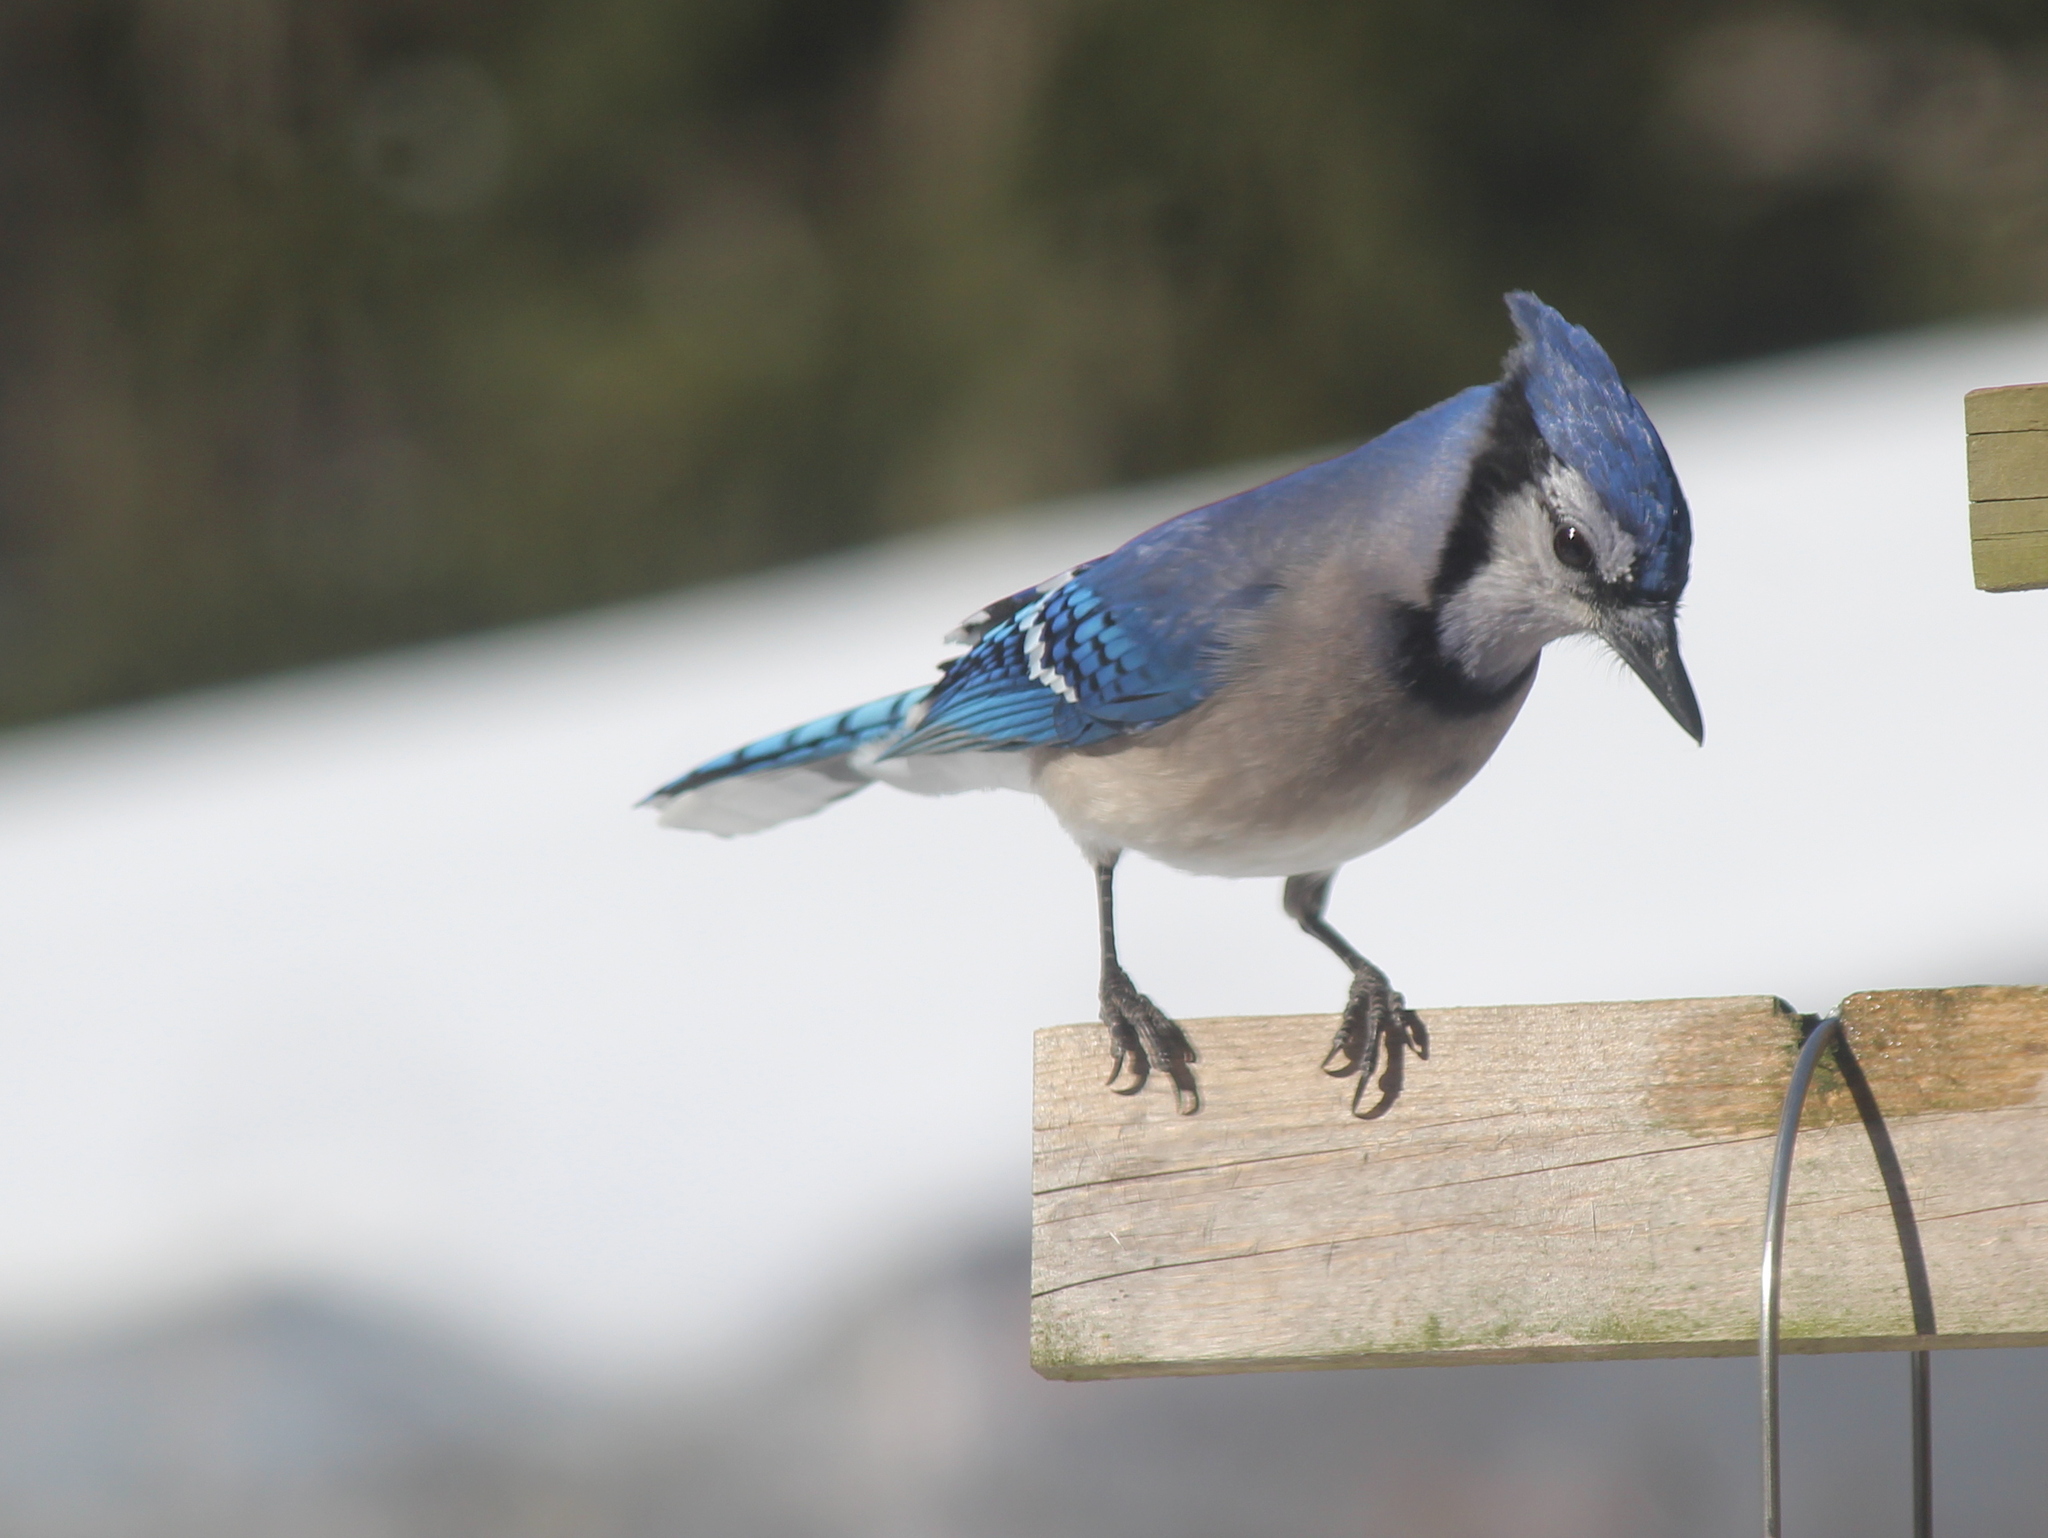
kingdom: Animalia
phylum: Chordata
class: Aves
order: Passeriformes
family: Corvidae
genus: Cyanocitta
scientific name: Cyanocitta cristata
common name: Blue jay
